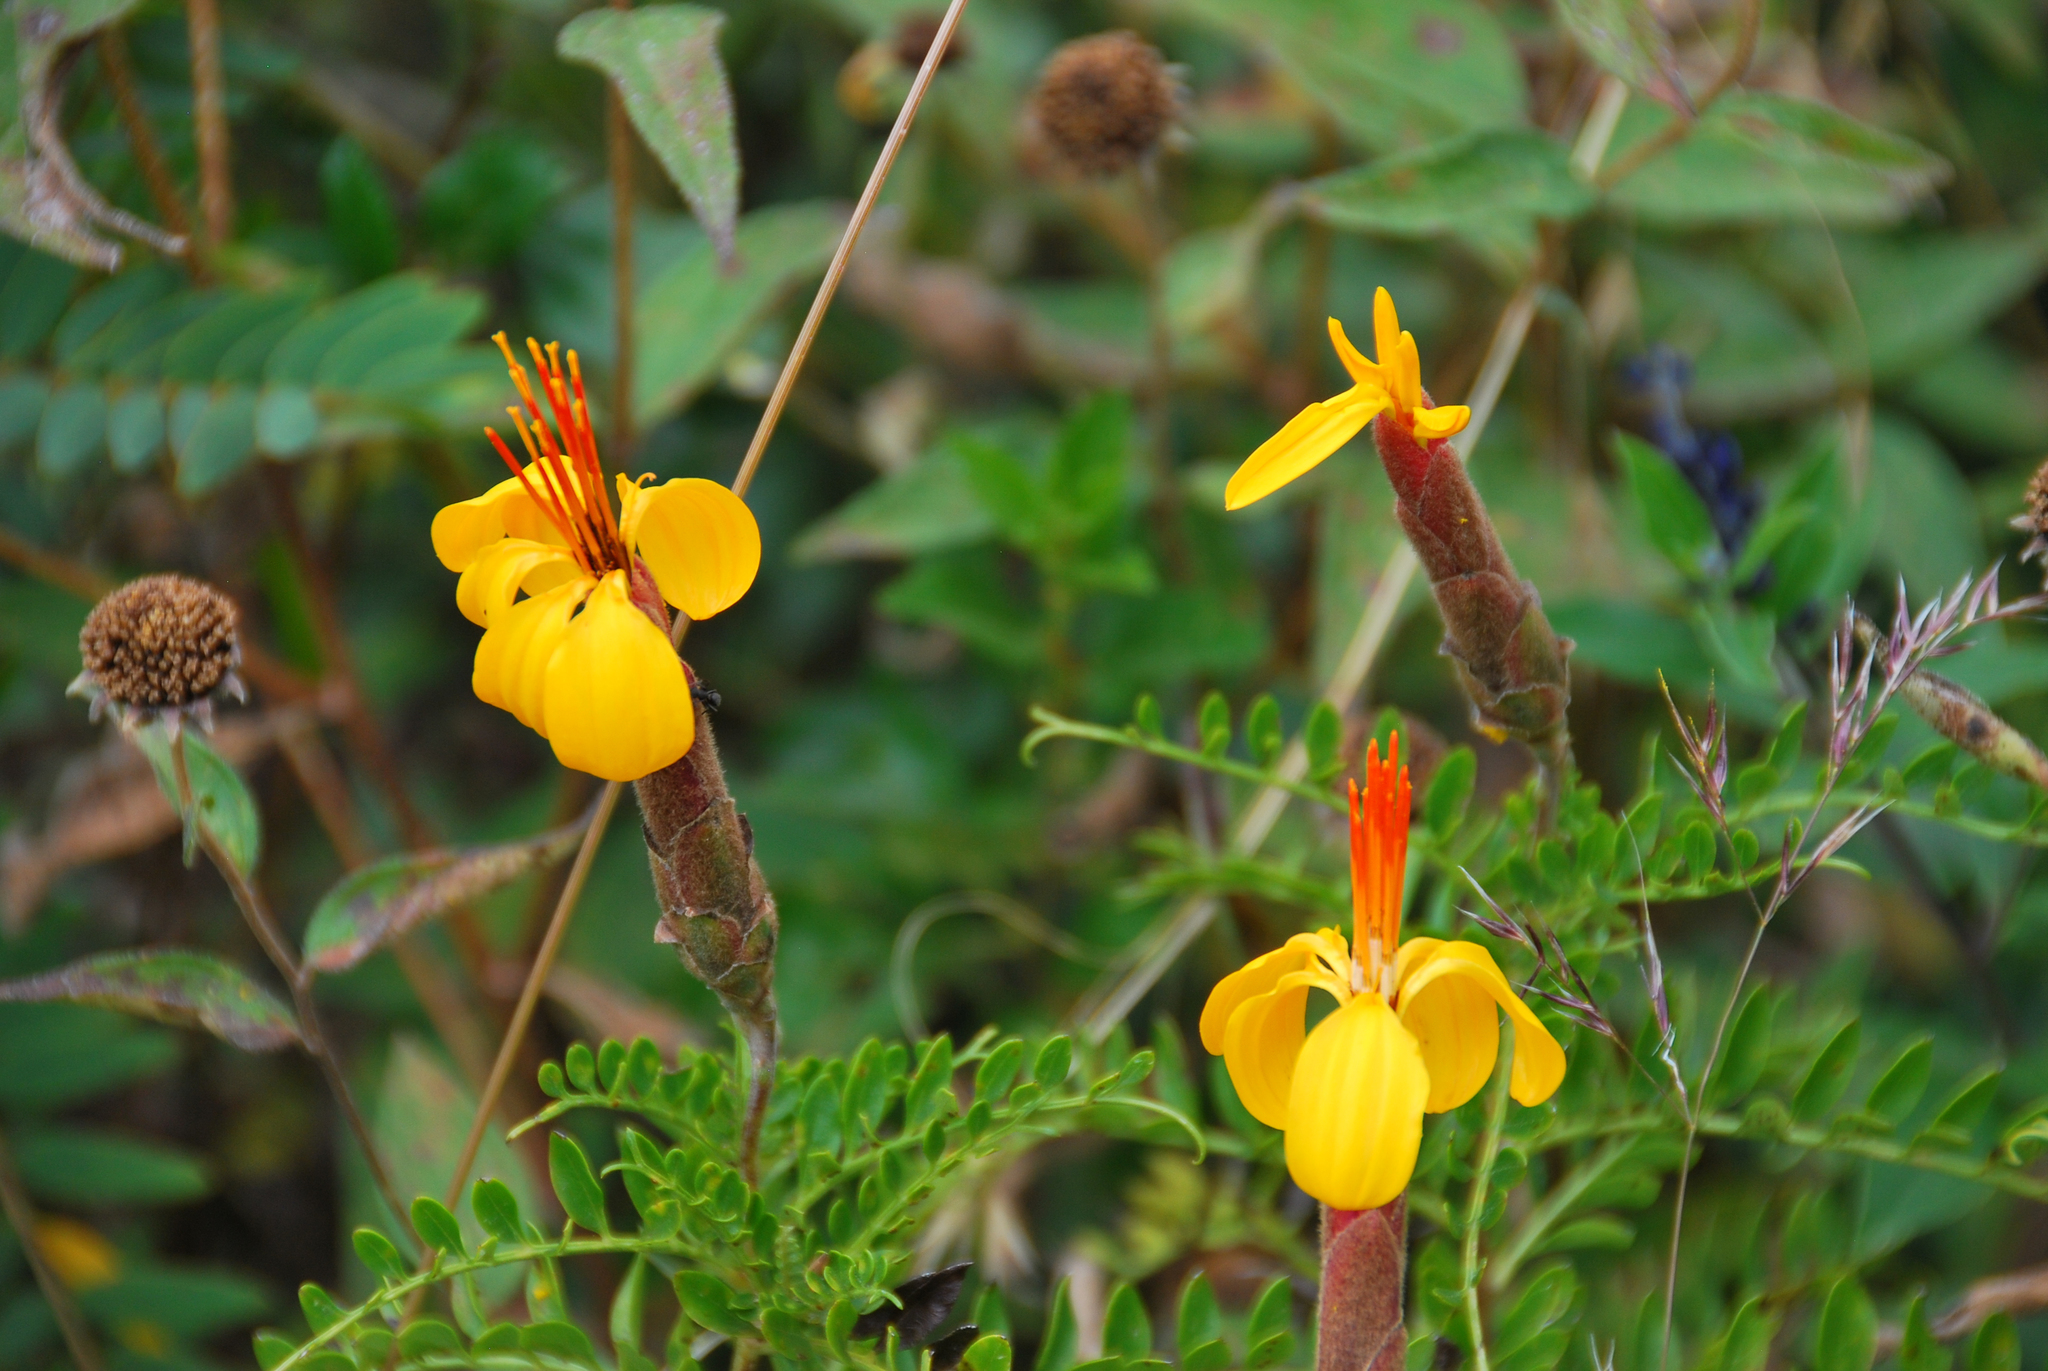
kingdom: Plantae
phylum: Tracheophyta
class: Magnoliopsida
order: Asterales
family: Asteraceae
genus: Mutisia
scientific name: Mutisia acuminata
